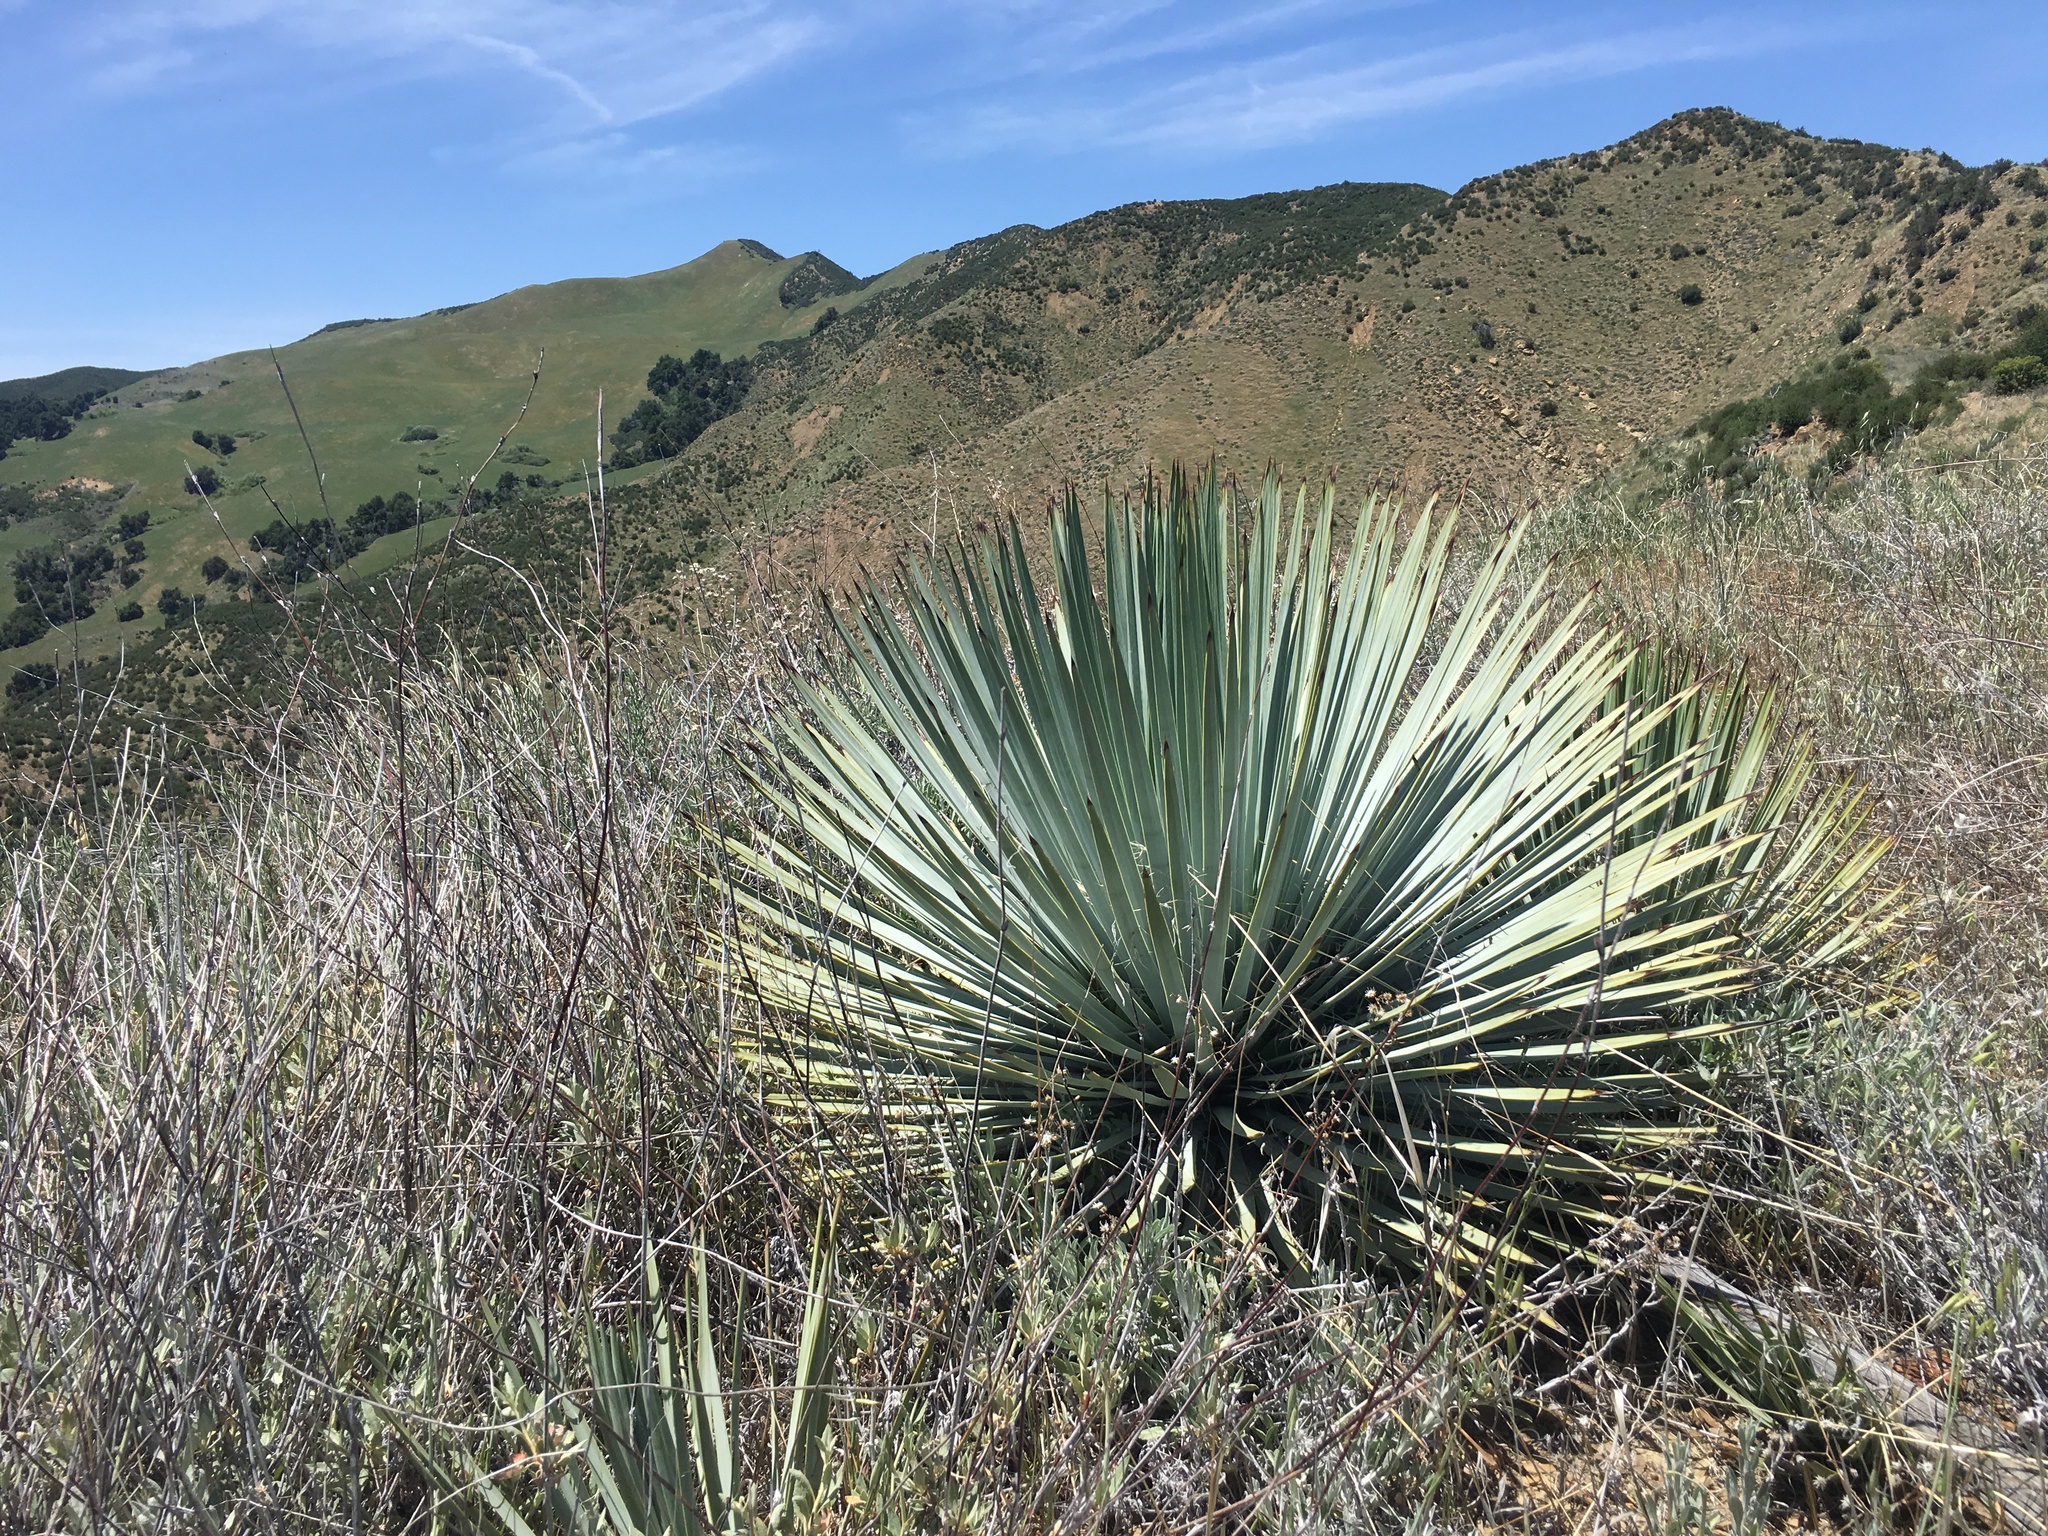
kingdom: Plantae
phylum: Tracheophyta
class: Liliopsida
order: Asparagales
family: Asparagaceae
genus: Hesperoyucca
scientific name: Hesperoyucca whipplei
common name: Our lord's-candle
